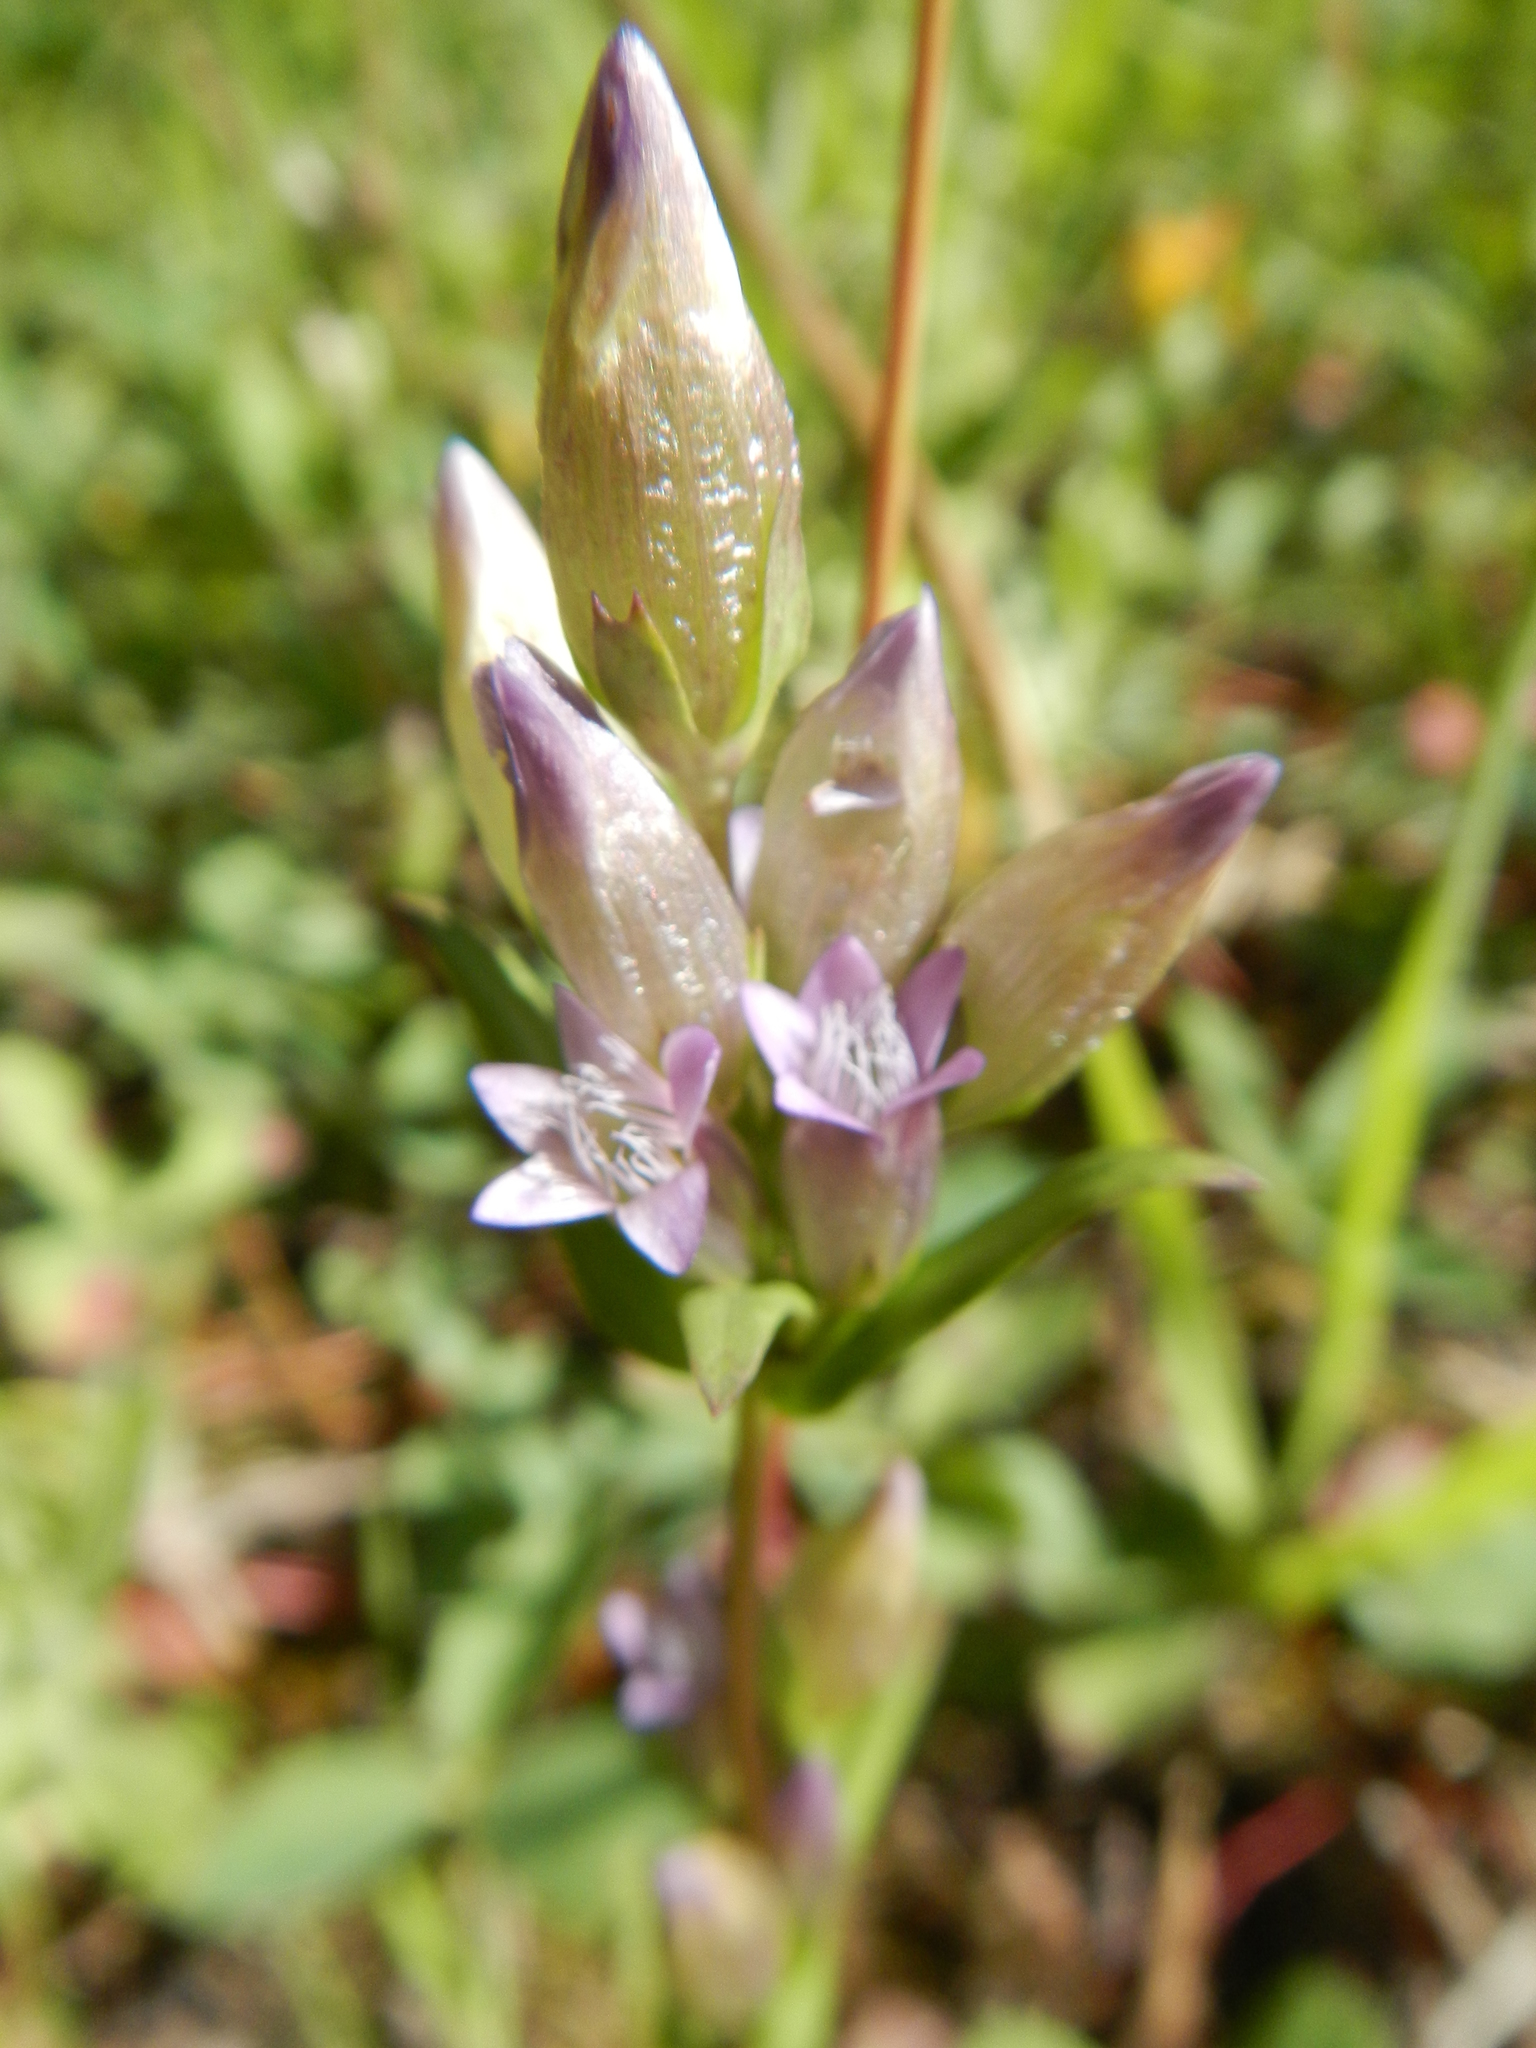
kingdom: Plantae
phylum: Tracheophyta
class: Magnoliopsida
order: Gentianales
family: Gentianaceae
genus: Gentianella
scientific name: Gentianella amarella
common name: Autumn gentian
